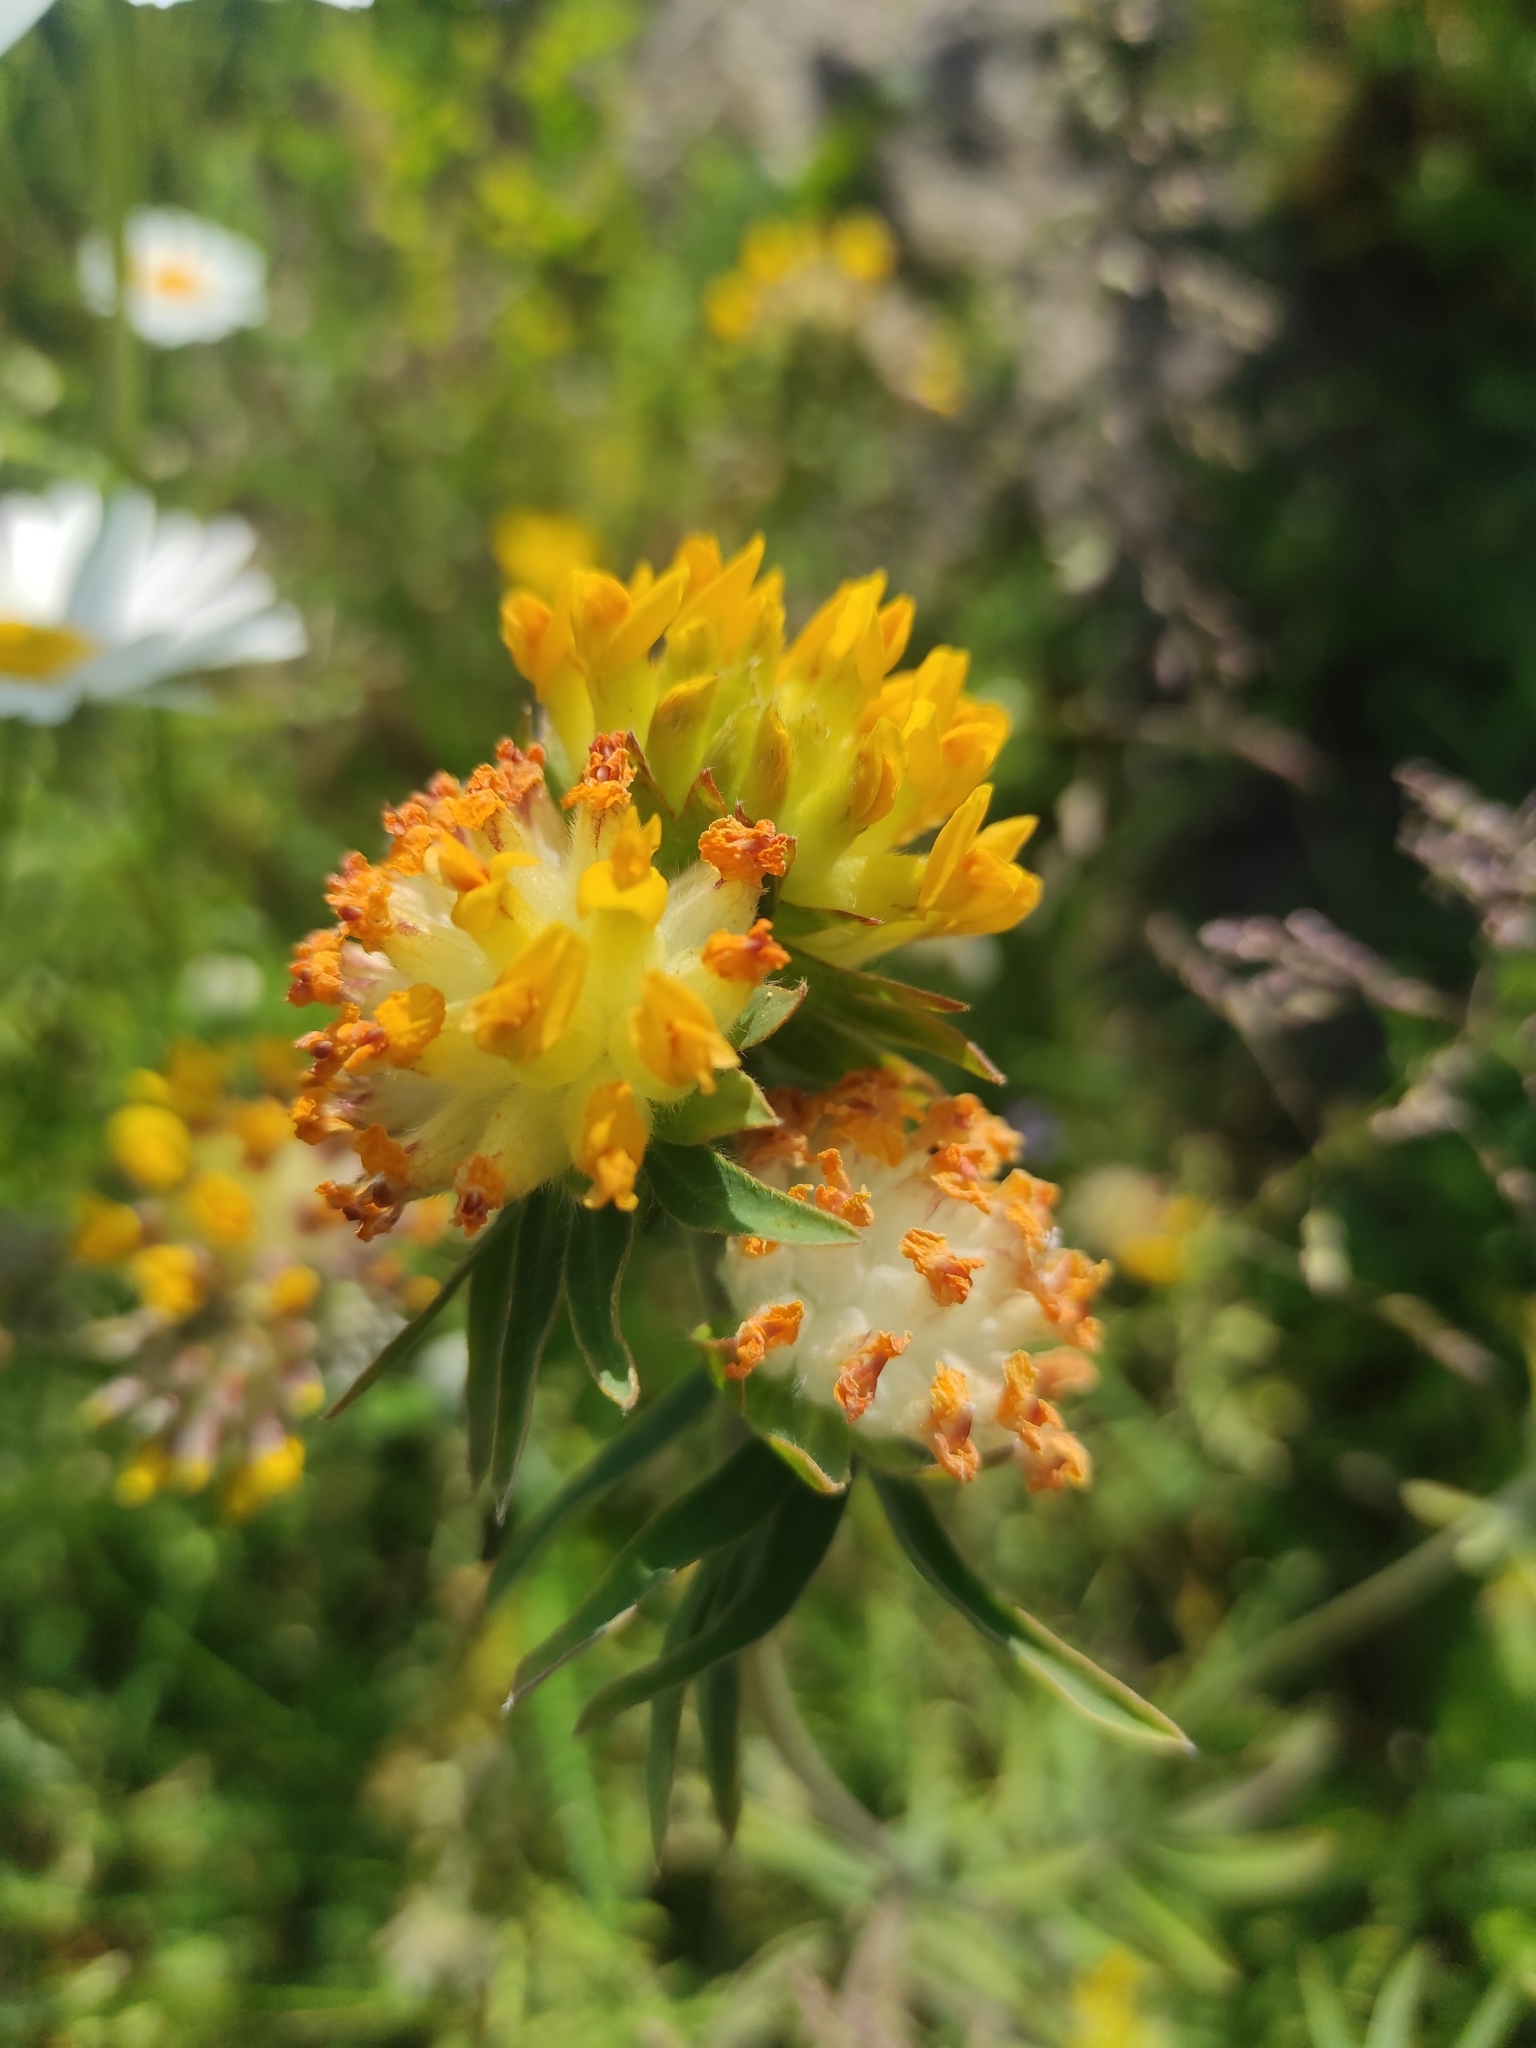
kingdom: Plantae
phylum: Tracheophyta
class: Magnoliopsida
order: Fabales
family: Fabaceae
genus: Anthyllis
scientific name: Anthyllis vulneraria
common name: Kidney vetch
